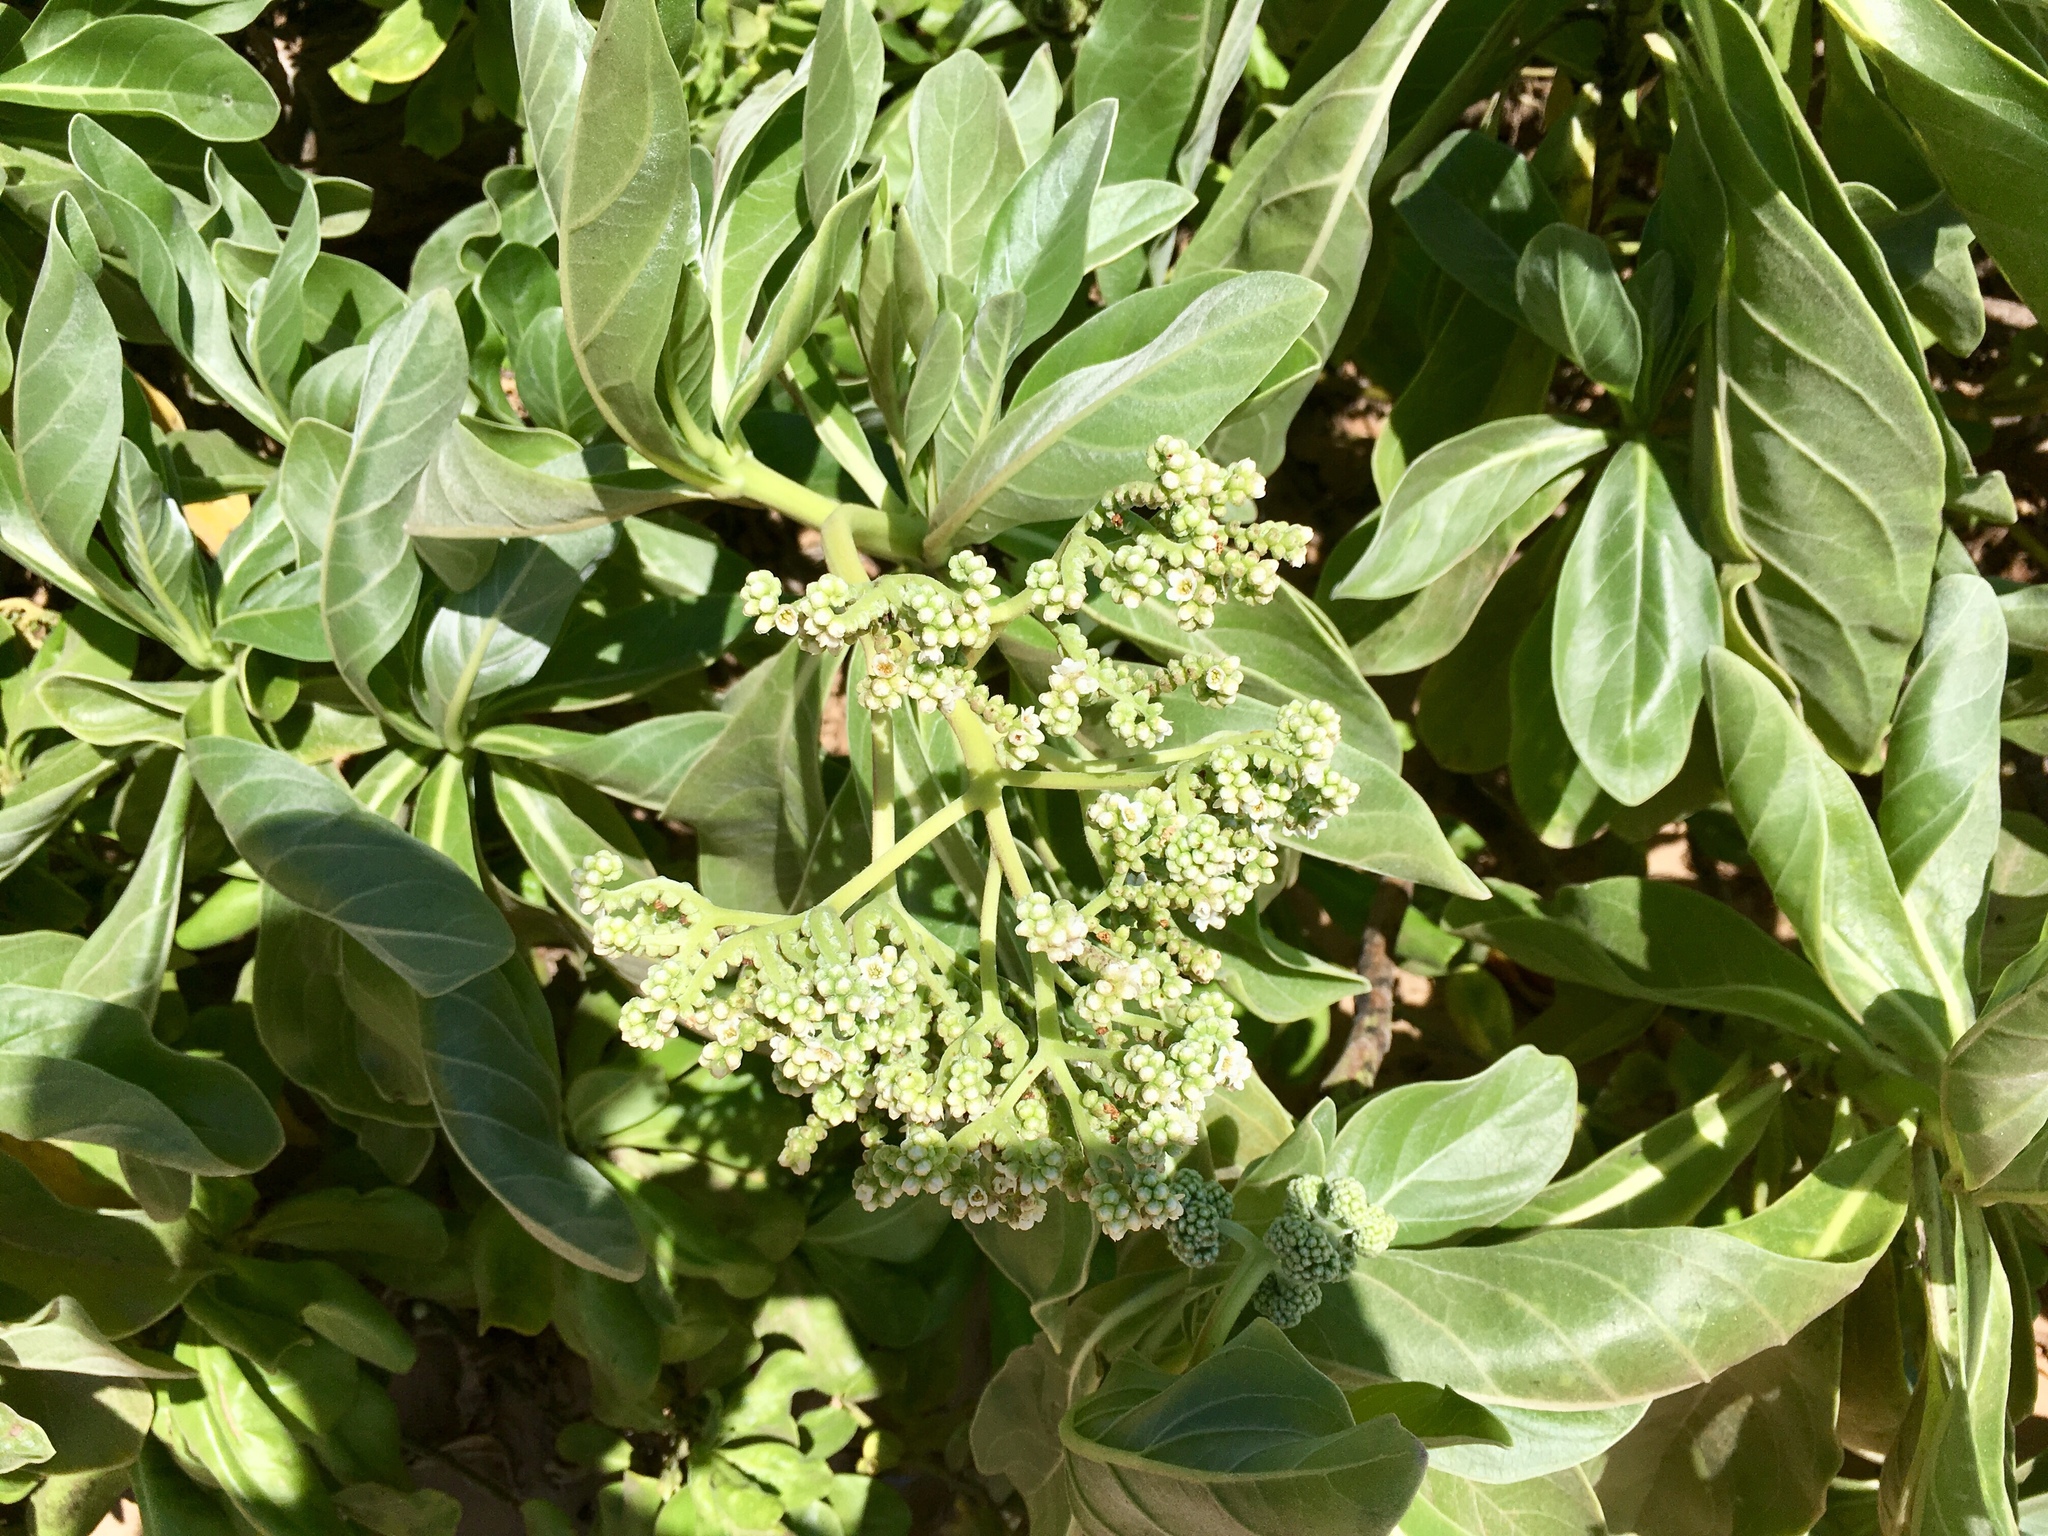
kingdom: Plantae
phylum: Tracheophyta
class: Magnoliopsida
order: Boraginales
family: Heliotropiaceae
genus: Heliotropium
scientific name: Heliotropium velutinum
